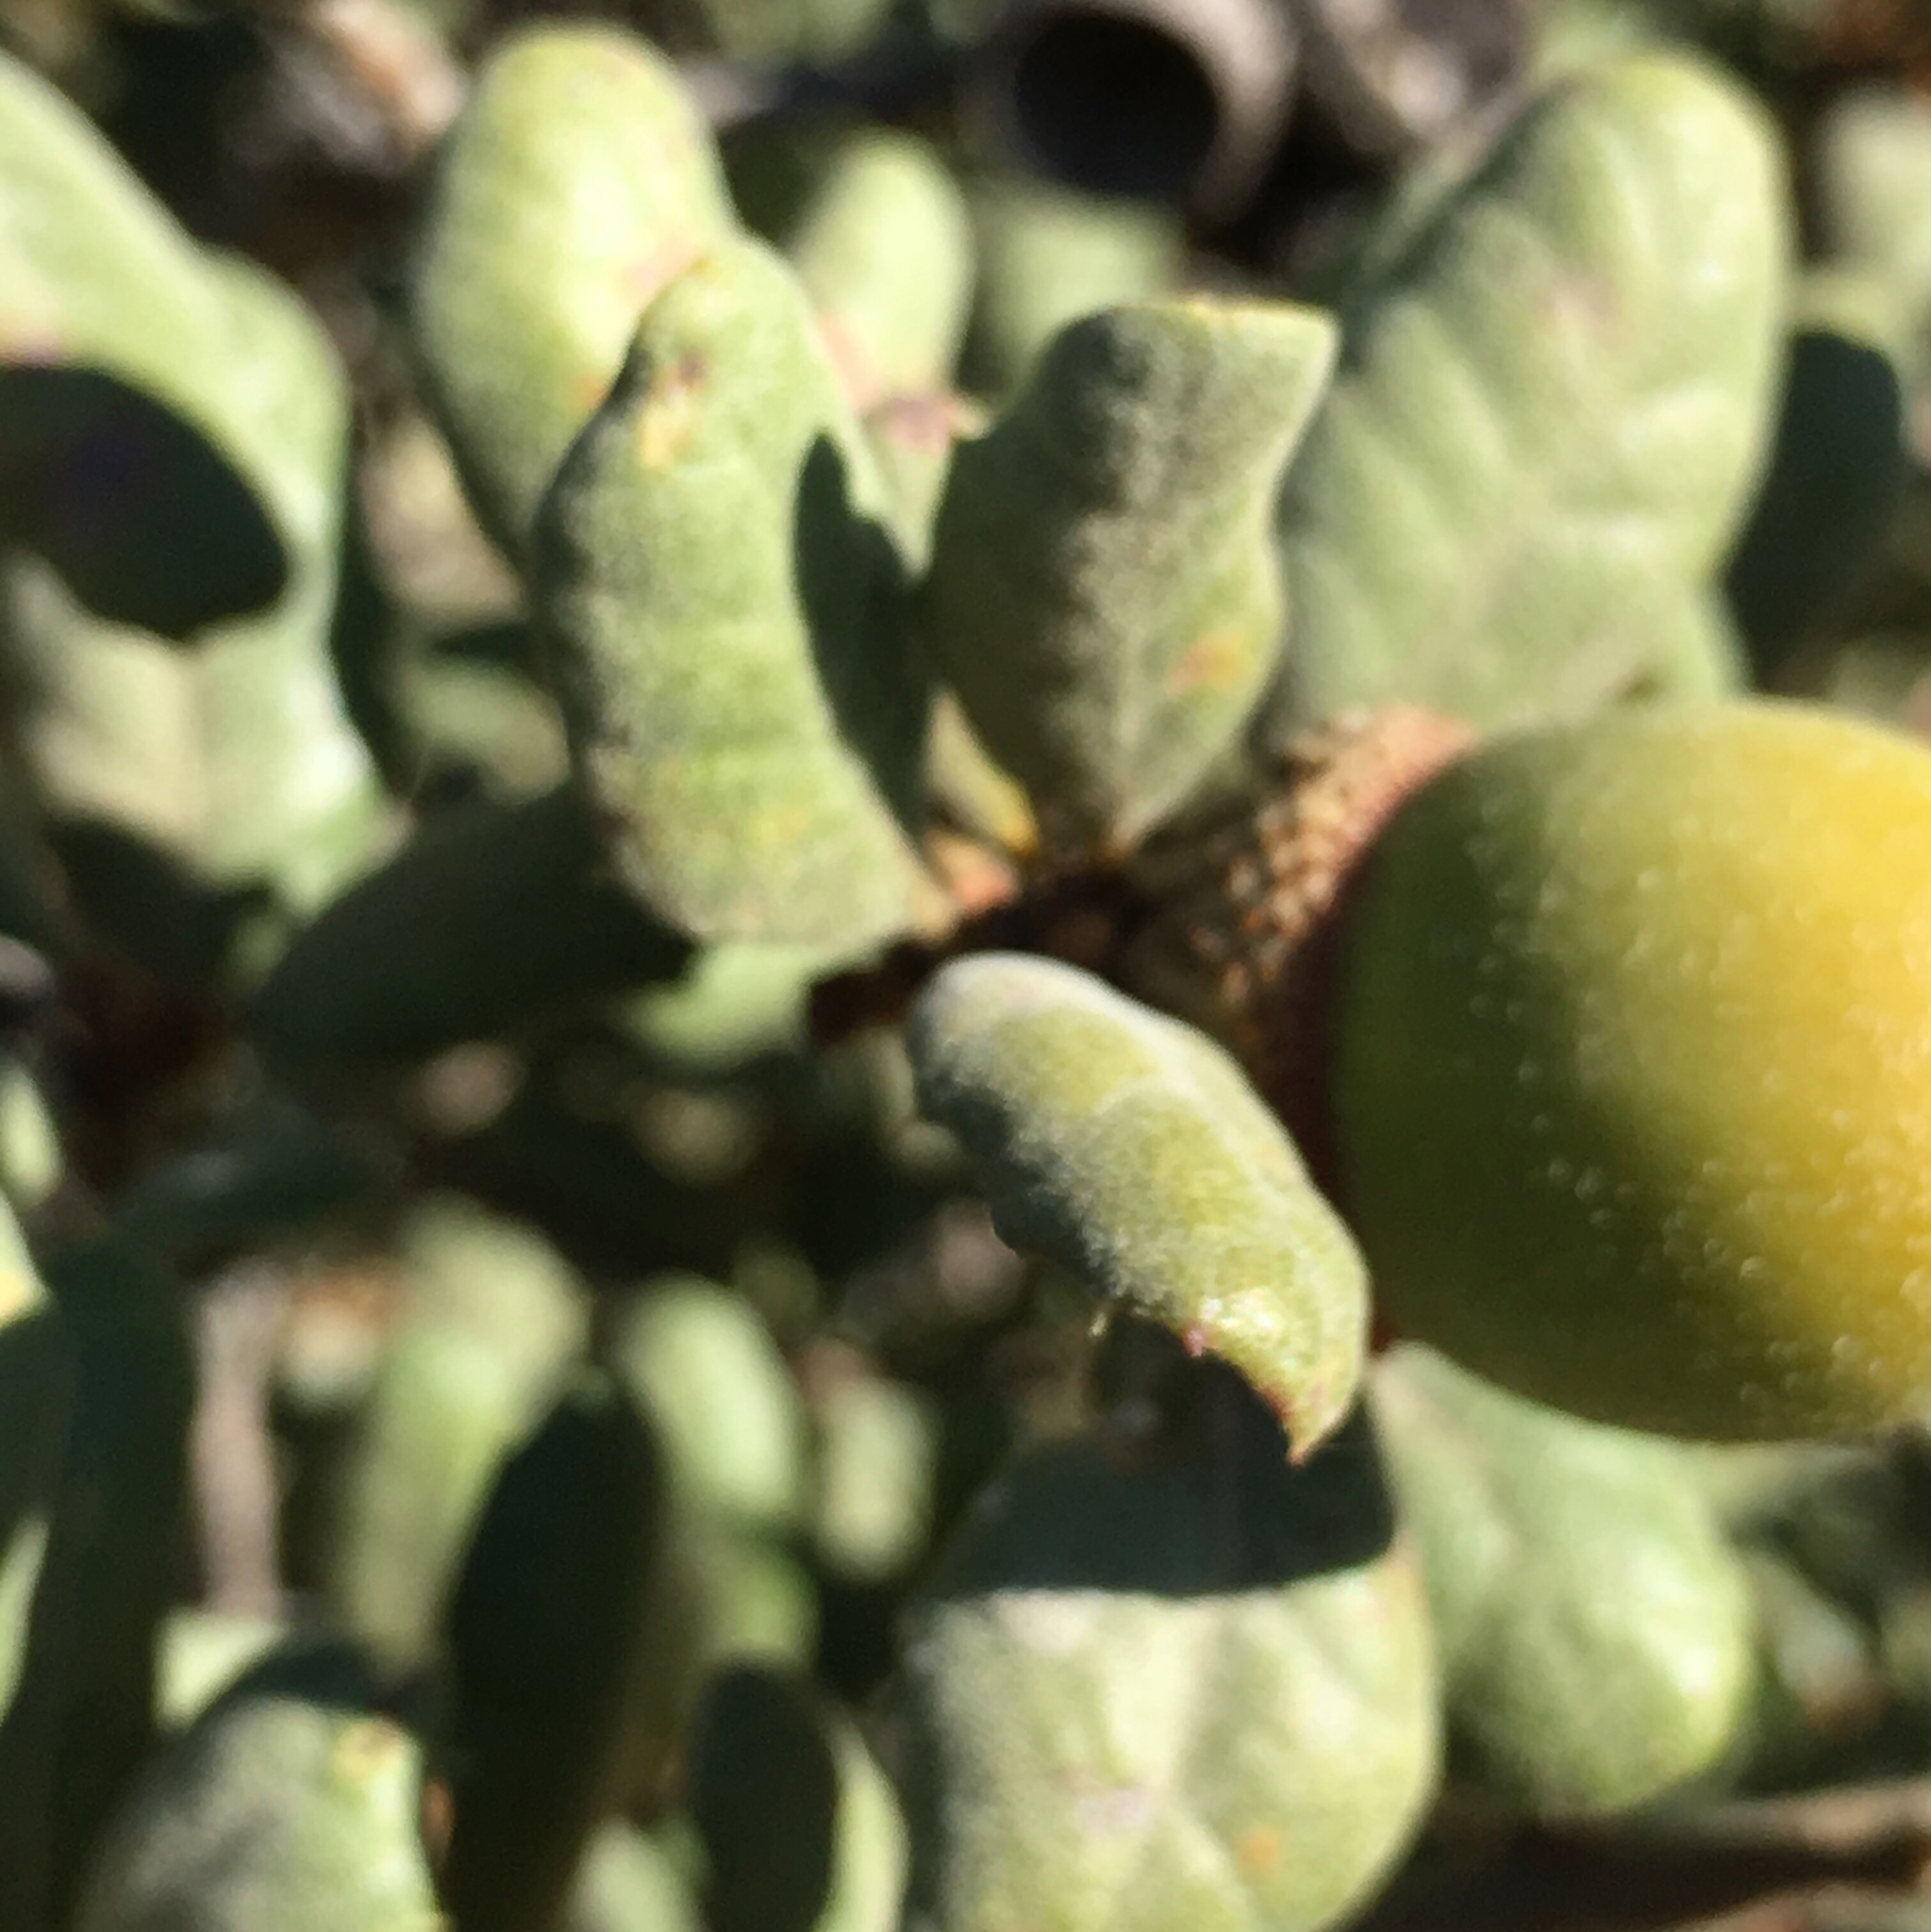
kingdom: Plantae
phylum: Tracheophyta
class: Magnoliopsida
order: Fagales
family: Fagaceae
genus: Quercus
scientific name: Quercus durata
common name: Leather oak
